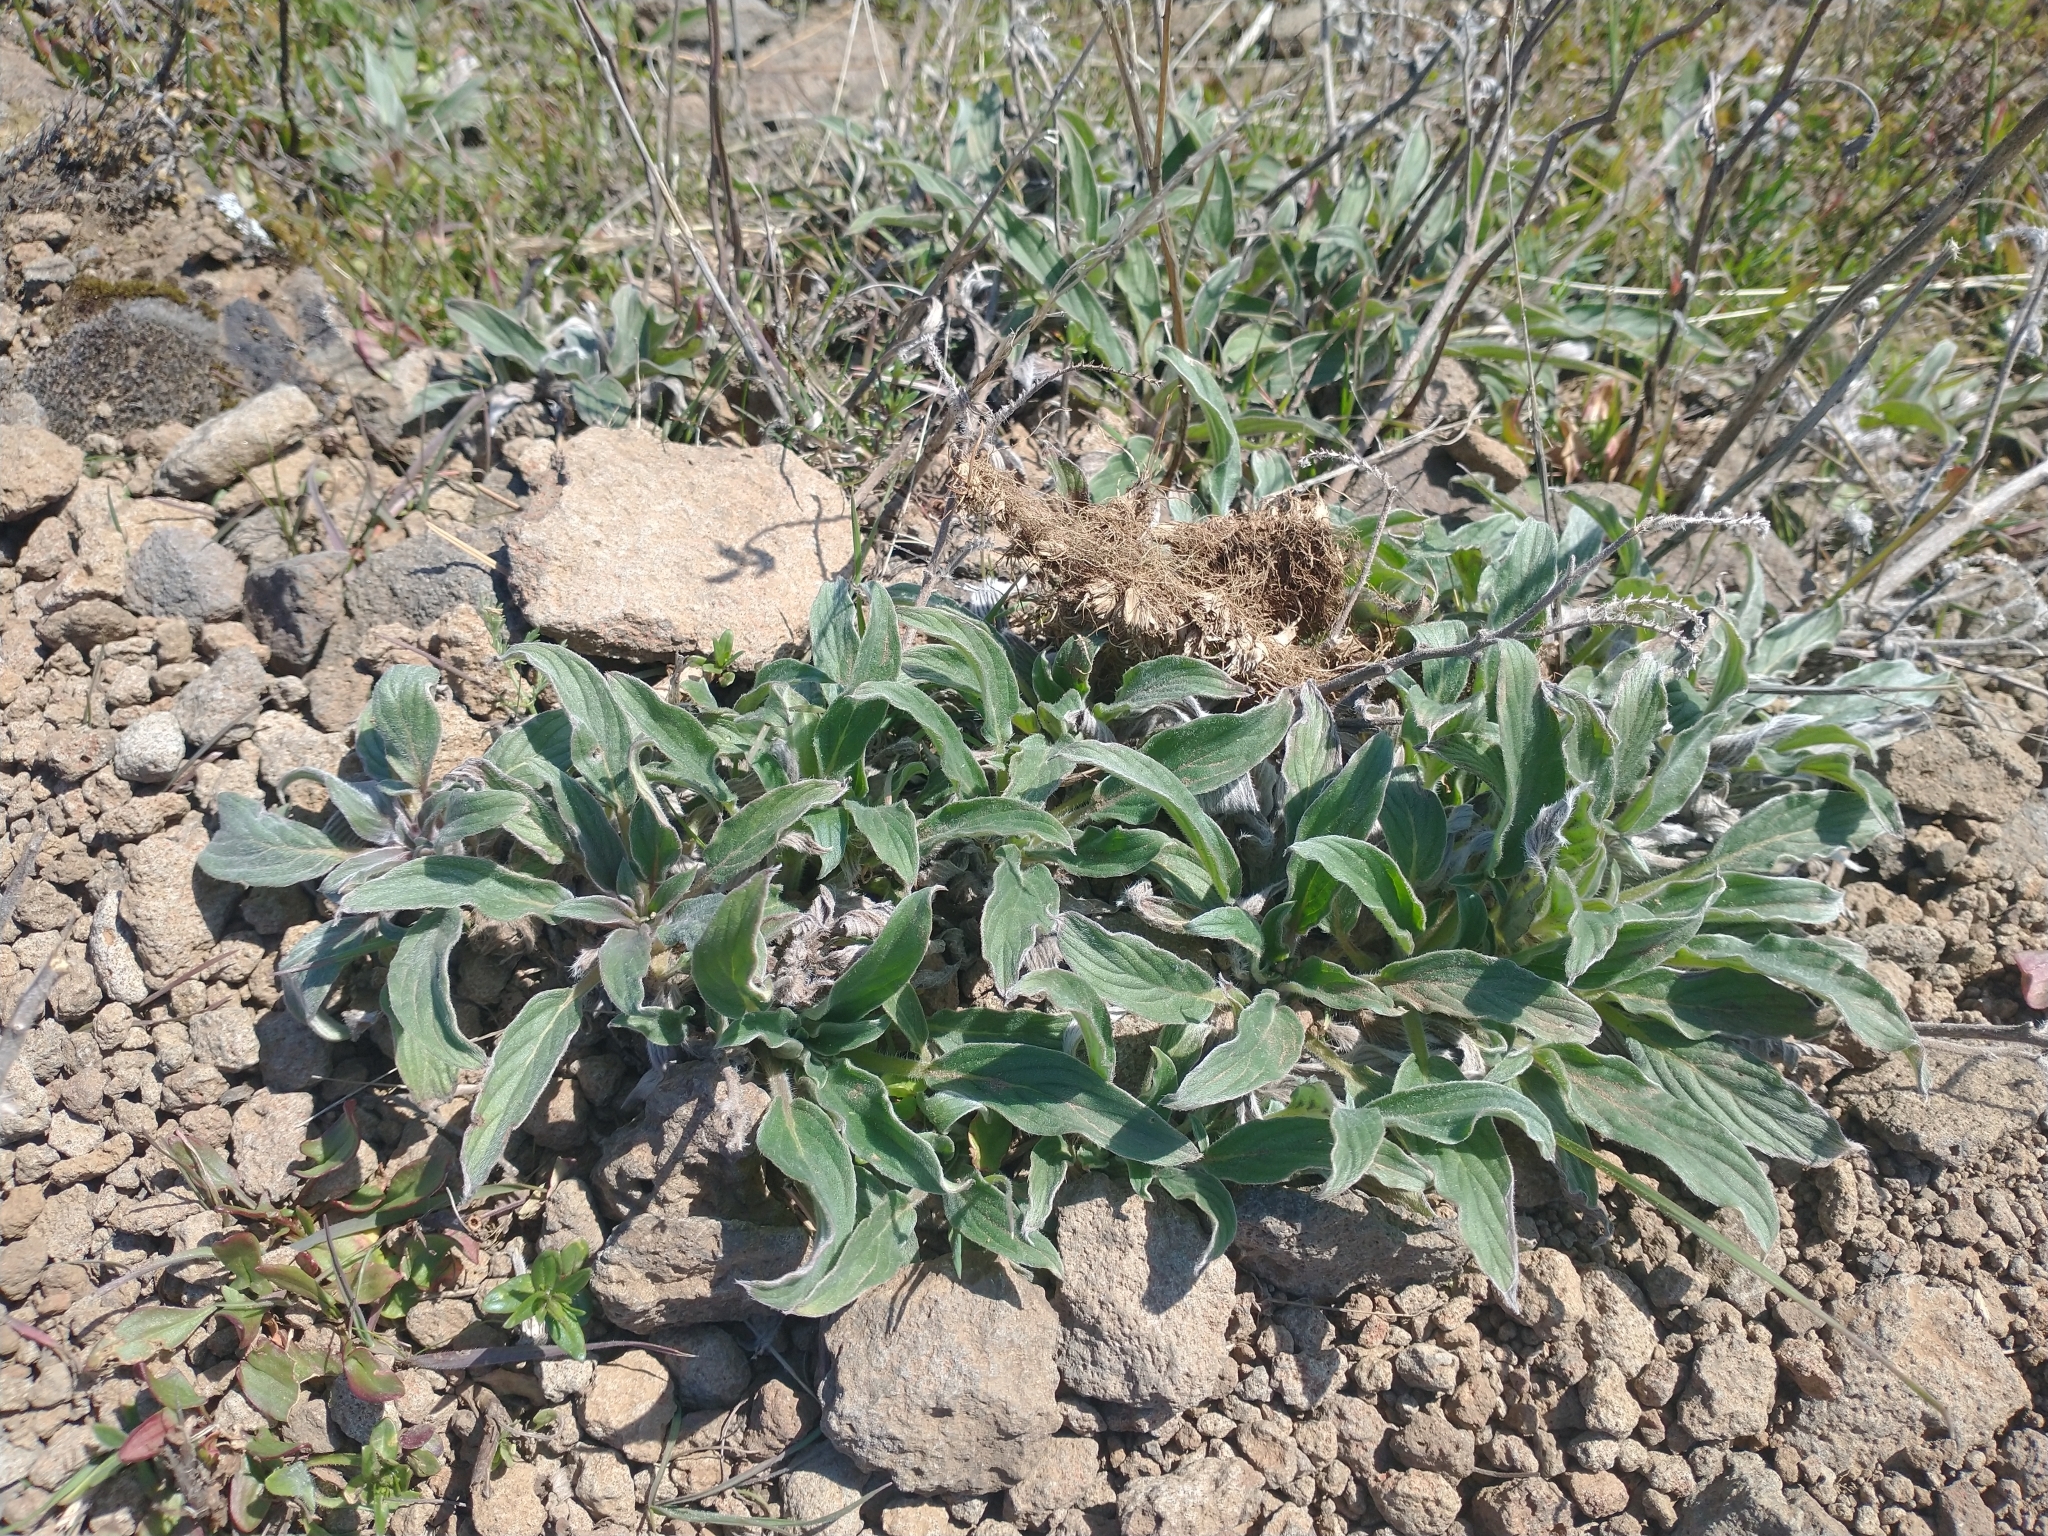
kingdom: Plantae
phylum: Tracheophyta
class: Magnoliopsida
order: Boraginales
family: Hydrophyllaceae
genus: Phacelia
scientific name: Phacelia hastata
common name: Silver-leaved phacelia
